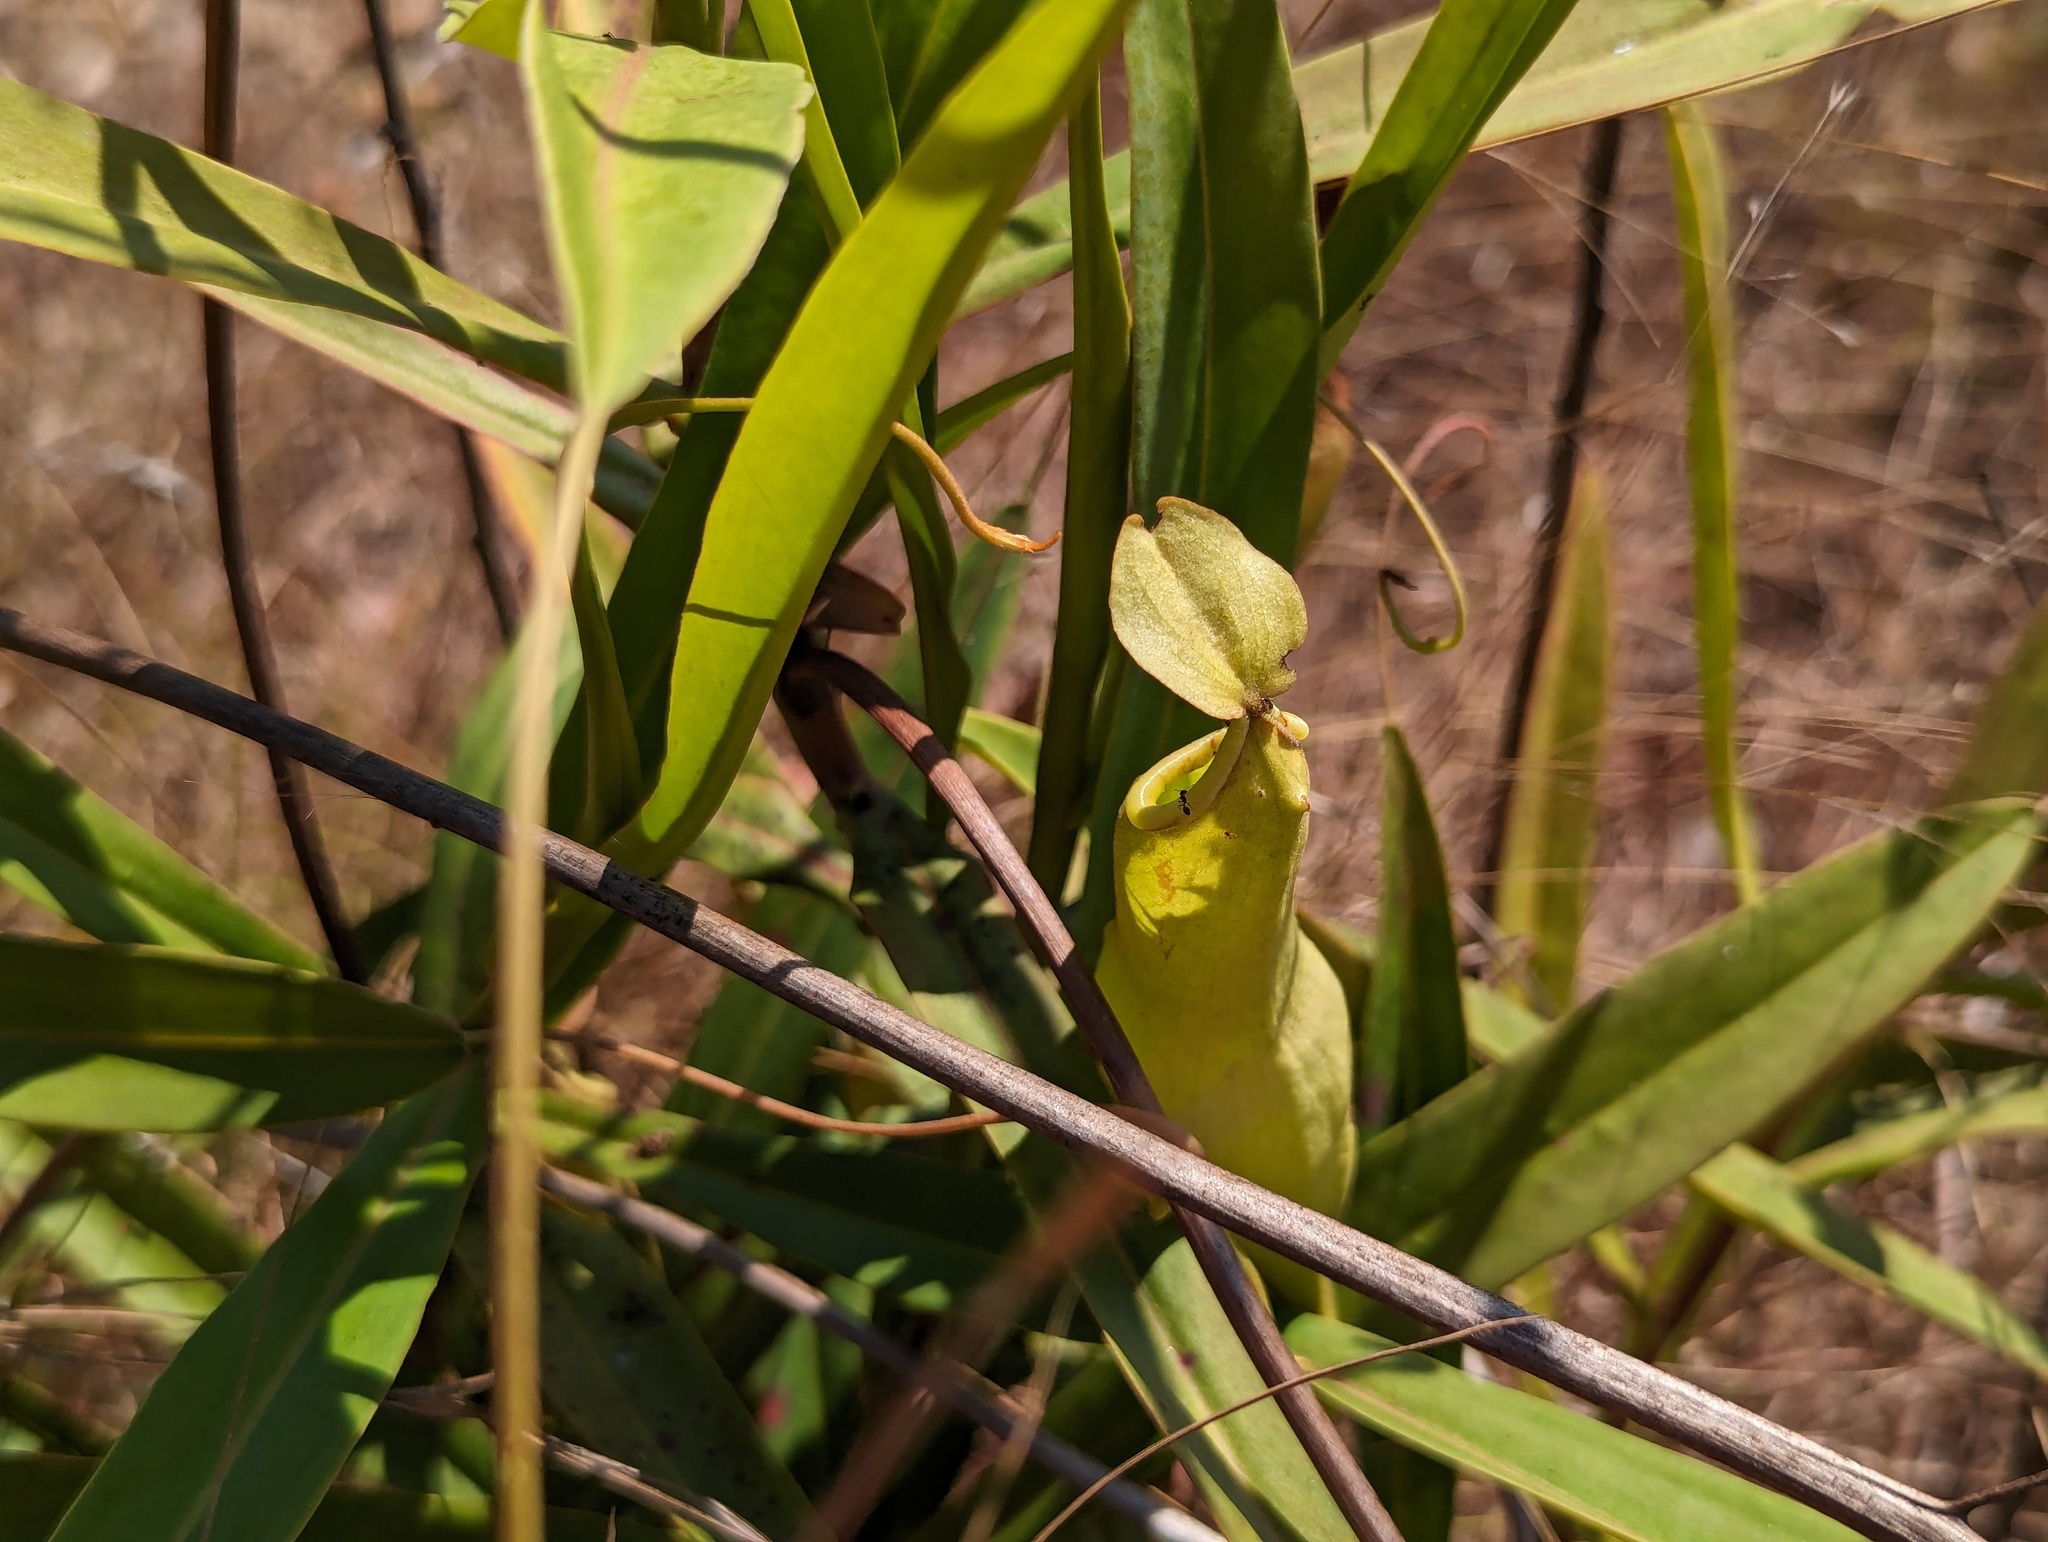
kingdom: Plantae
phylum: Tracheophyta
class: Magnoliopsida
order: Caryophyllales
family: Nepenthaceae
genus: Nepenthes
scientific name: Nepenthes abalata
